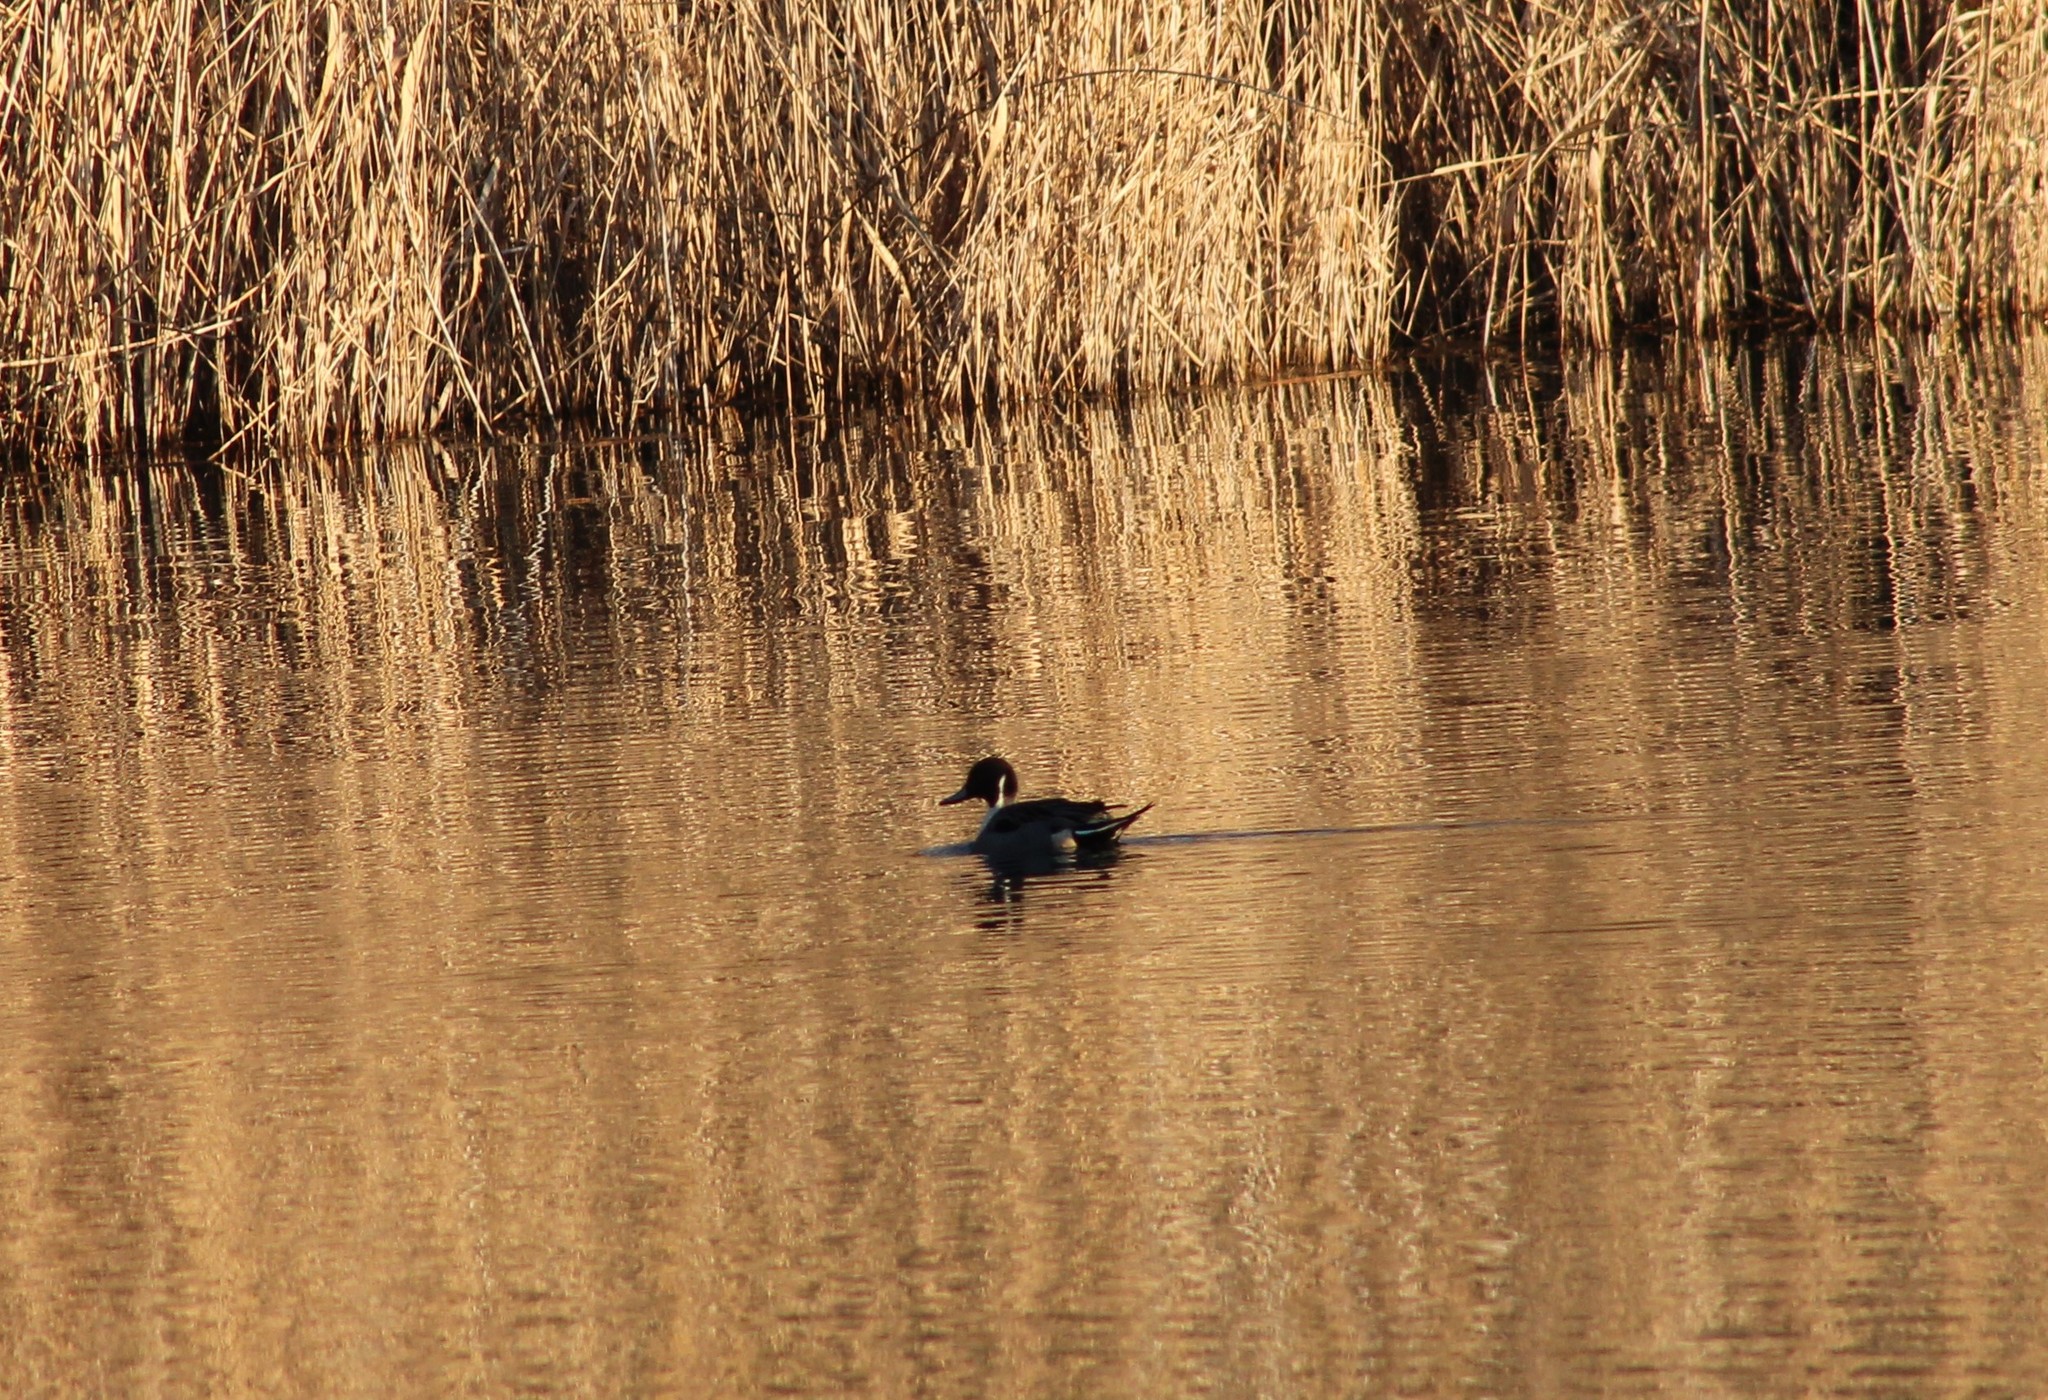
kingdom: Animalia
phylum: Chordata
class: Aves
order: Anseriformes
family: Anatidae
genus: Anas
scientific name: Anas acuta
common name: Northern pintail
